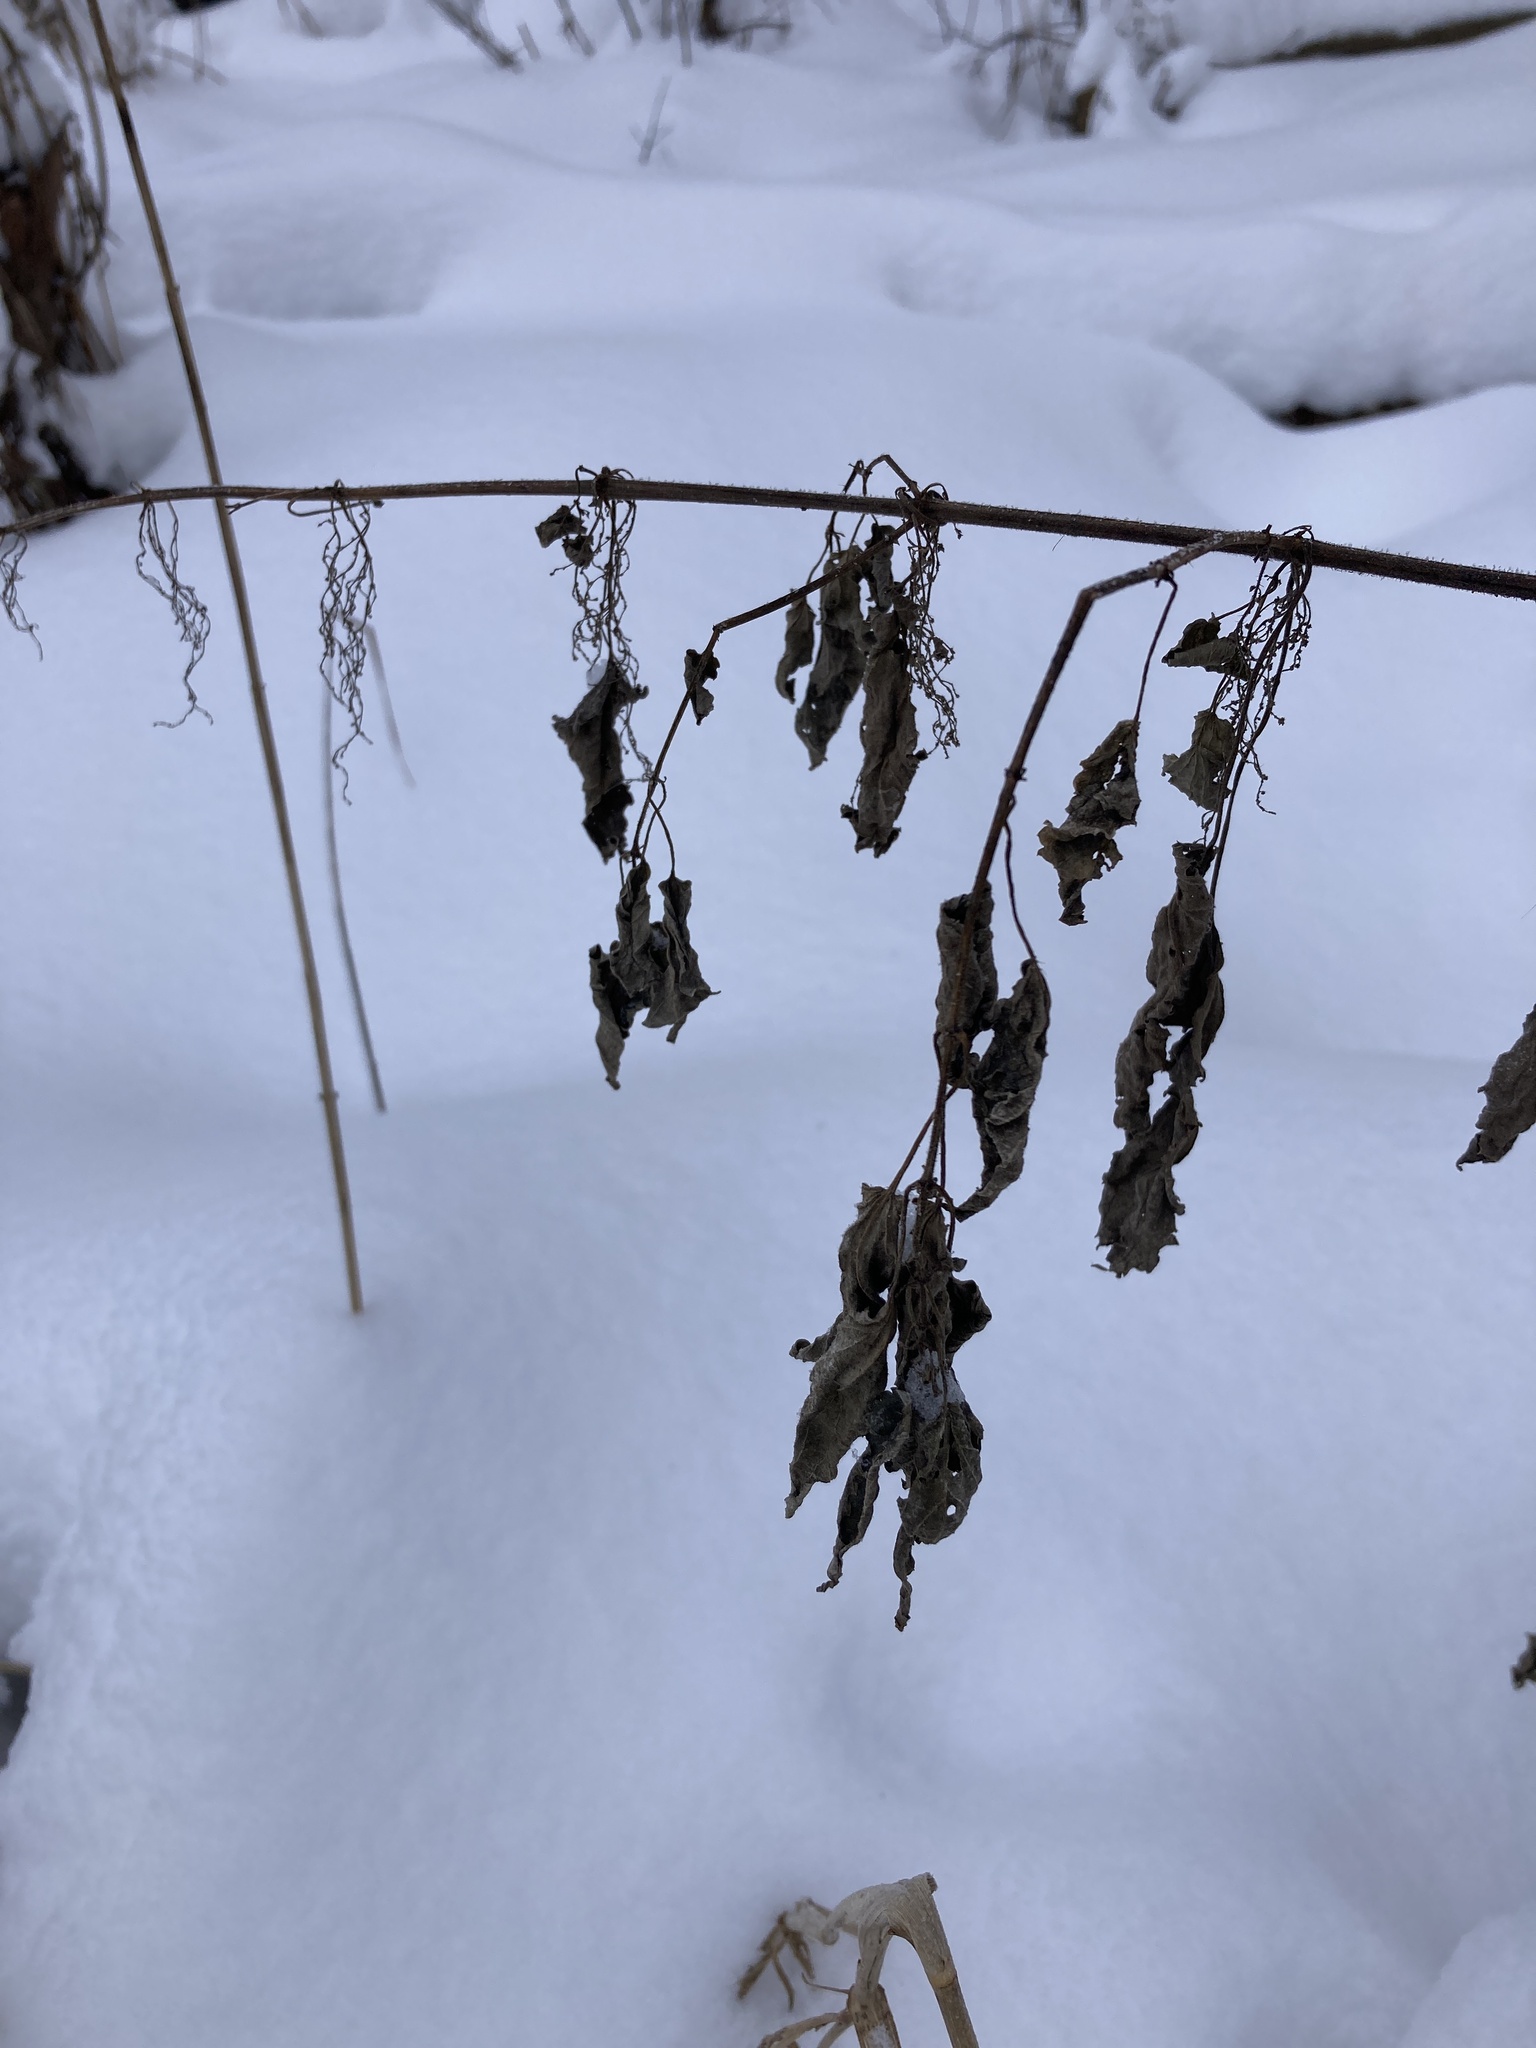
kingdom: Plantae
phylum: Tracheophyta
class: Magnoliopsida
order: Rosales
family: Urticaceae
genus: Urtica
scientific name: Urtica dioica
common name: Common nettle
